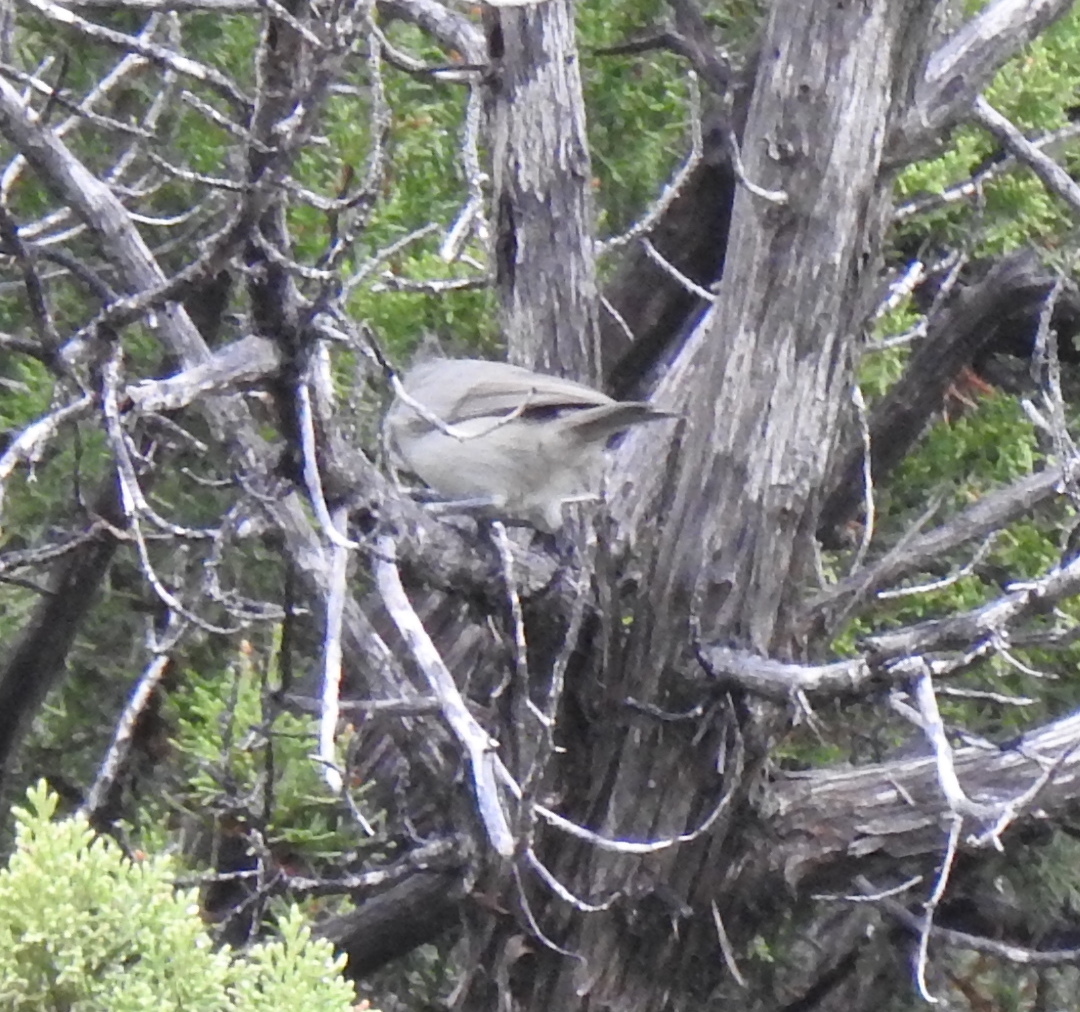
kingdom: Animalia
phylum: Chordata
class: Aves
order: Passeriformes
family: Paridae
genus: Baeolophus
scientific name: Baeolophus ridgwayi
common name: Juniper titmouse
